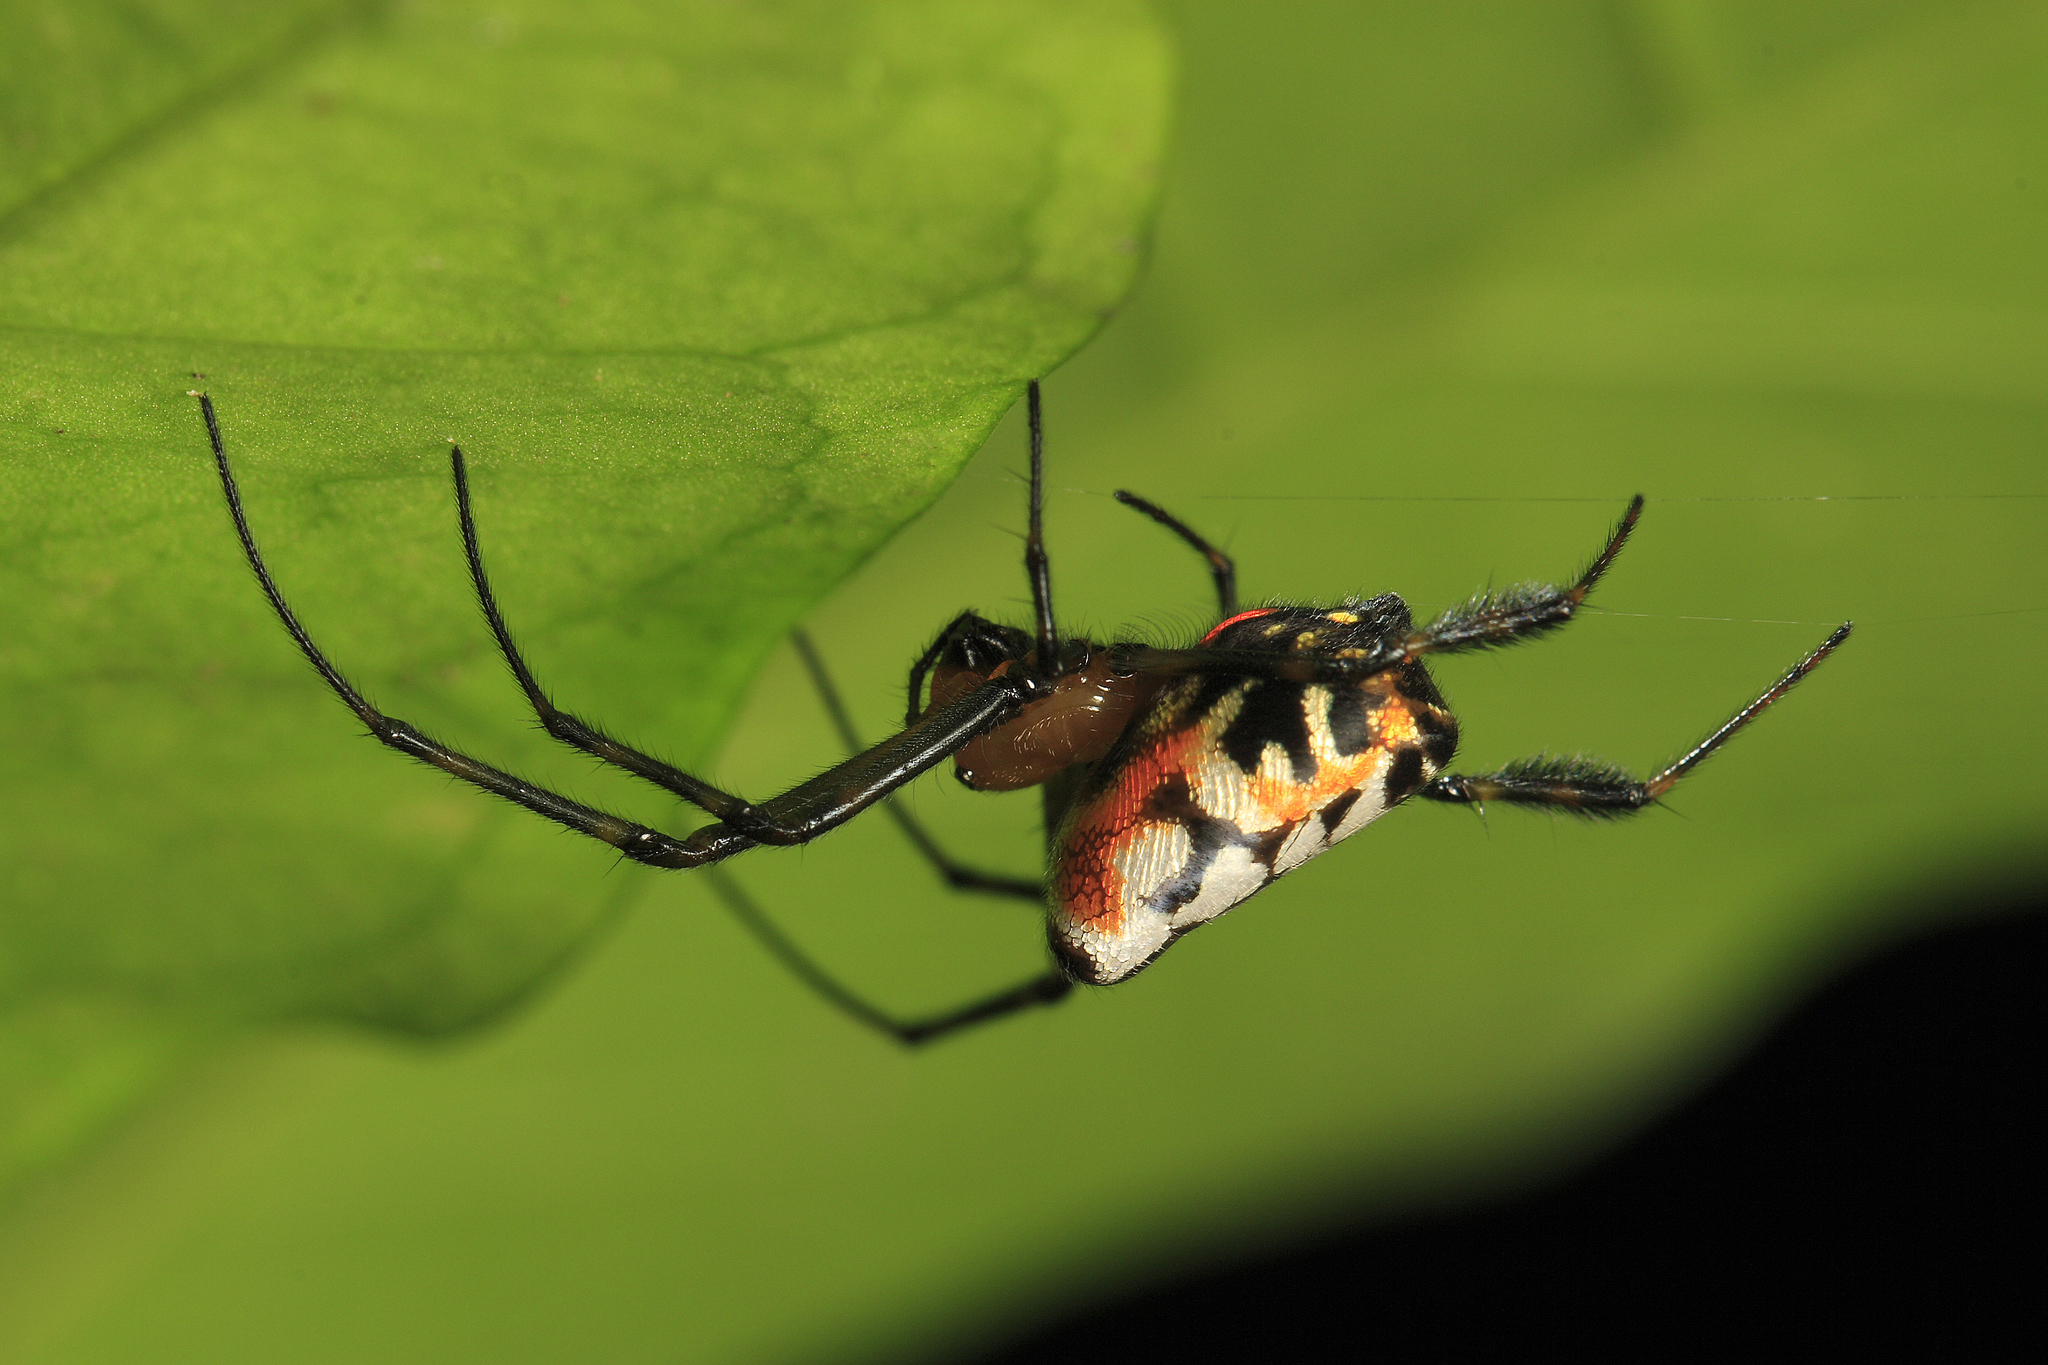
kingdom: Animalia
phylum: Arthropoda
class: Arachnida
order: Araneae
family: Tetragnathidae
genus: Leucauge
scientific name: Leucauge fastigata
